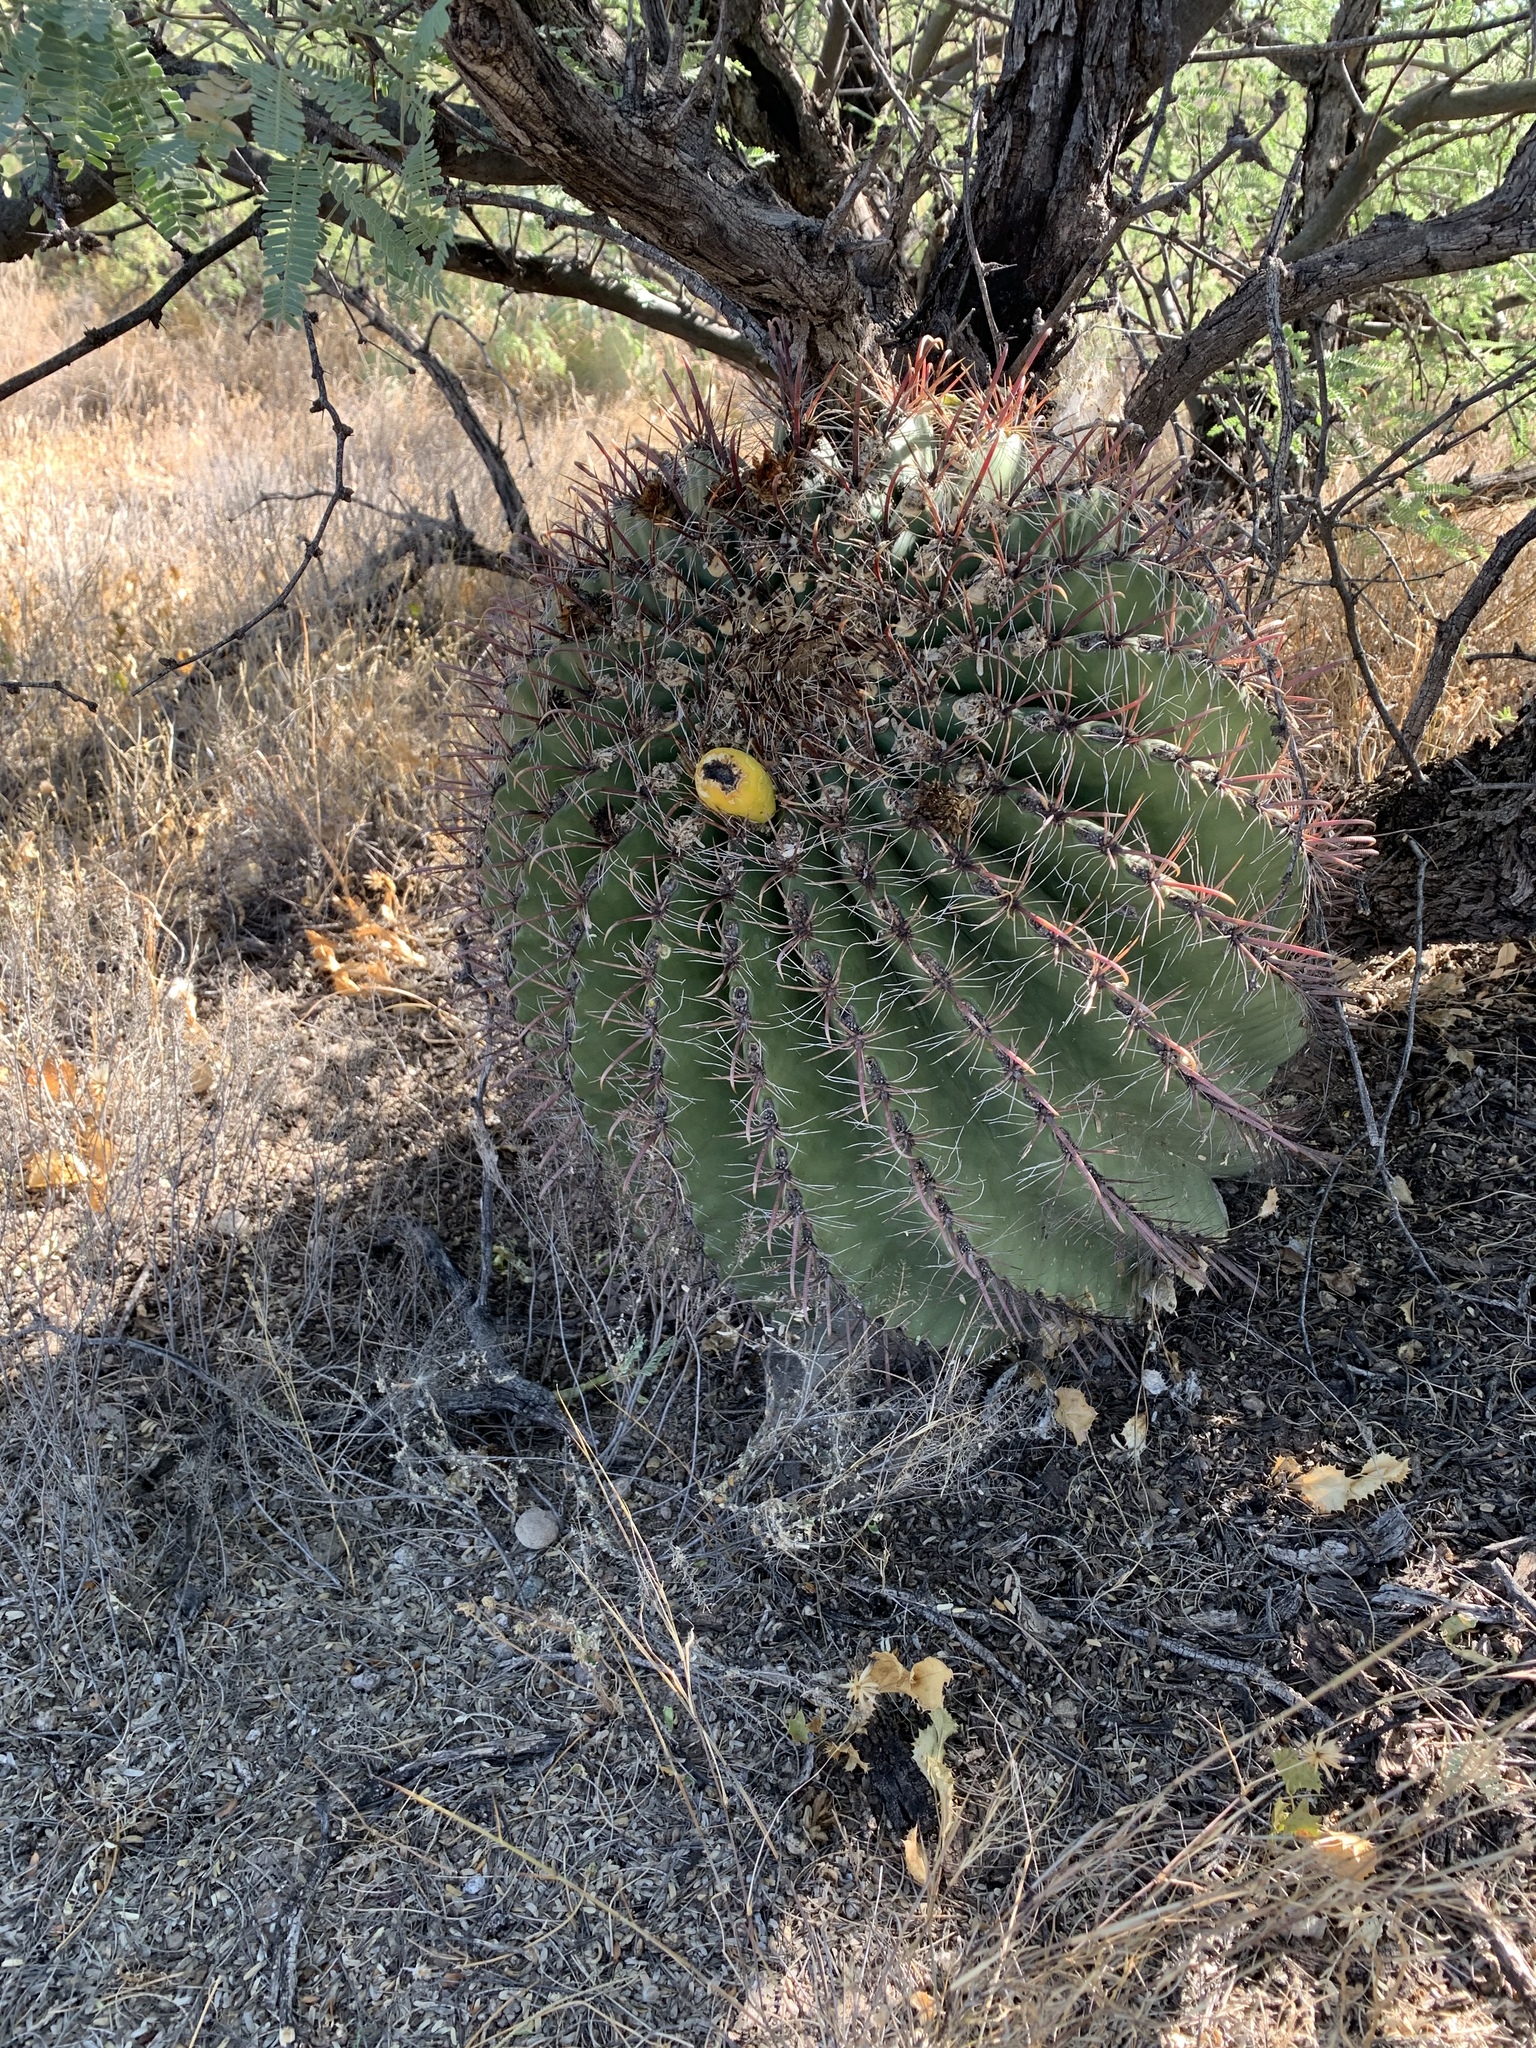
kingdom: Plantae
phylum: Tracheophyta
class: Magnoliopsida
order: Caryophyllales
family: Cactaceae
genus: Ferocactus
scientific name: Ferocactus wislizeni
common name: Candy barrel cactus
